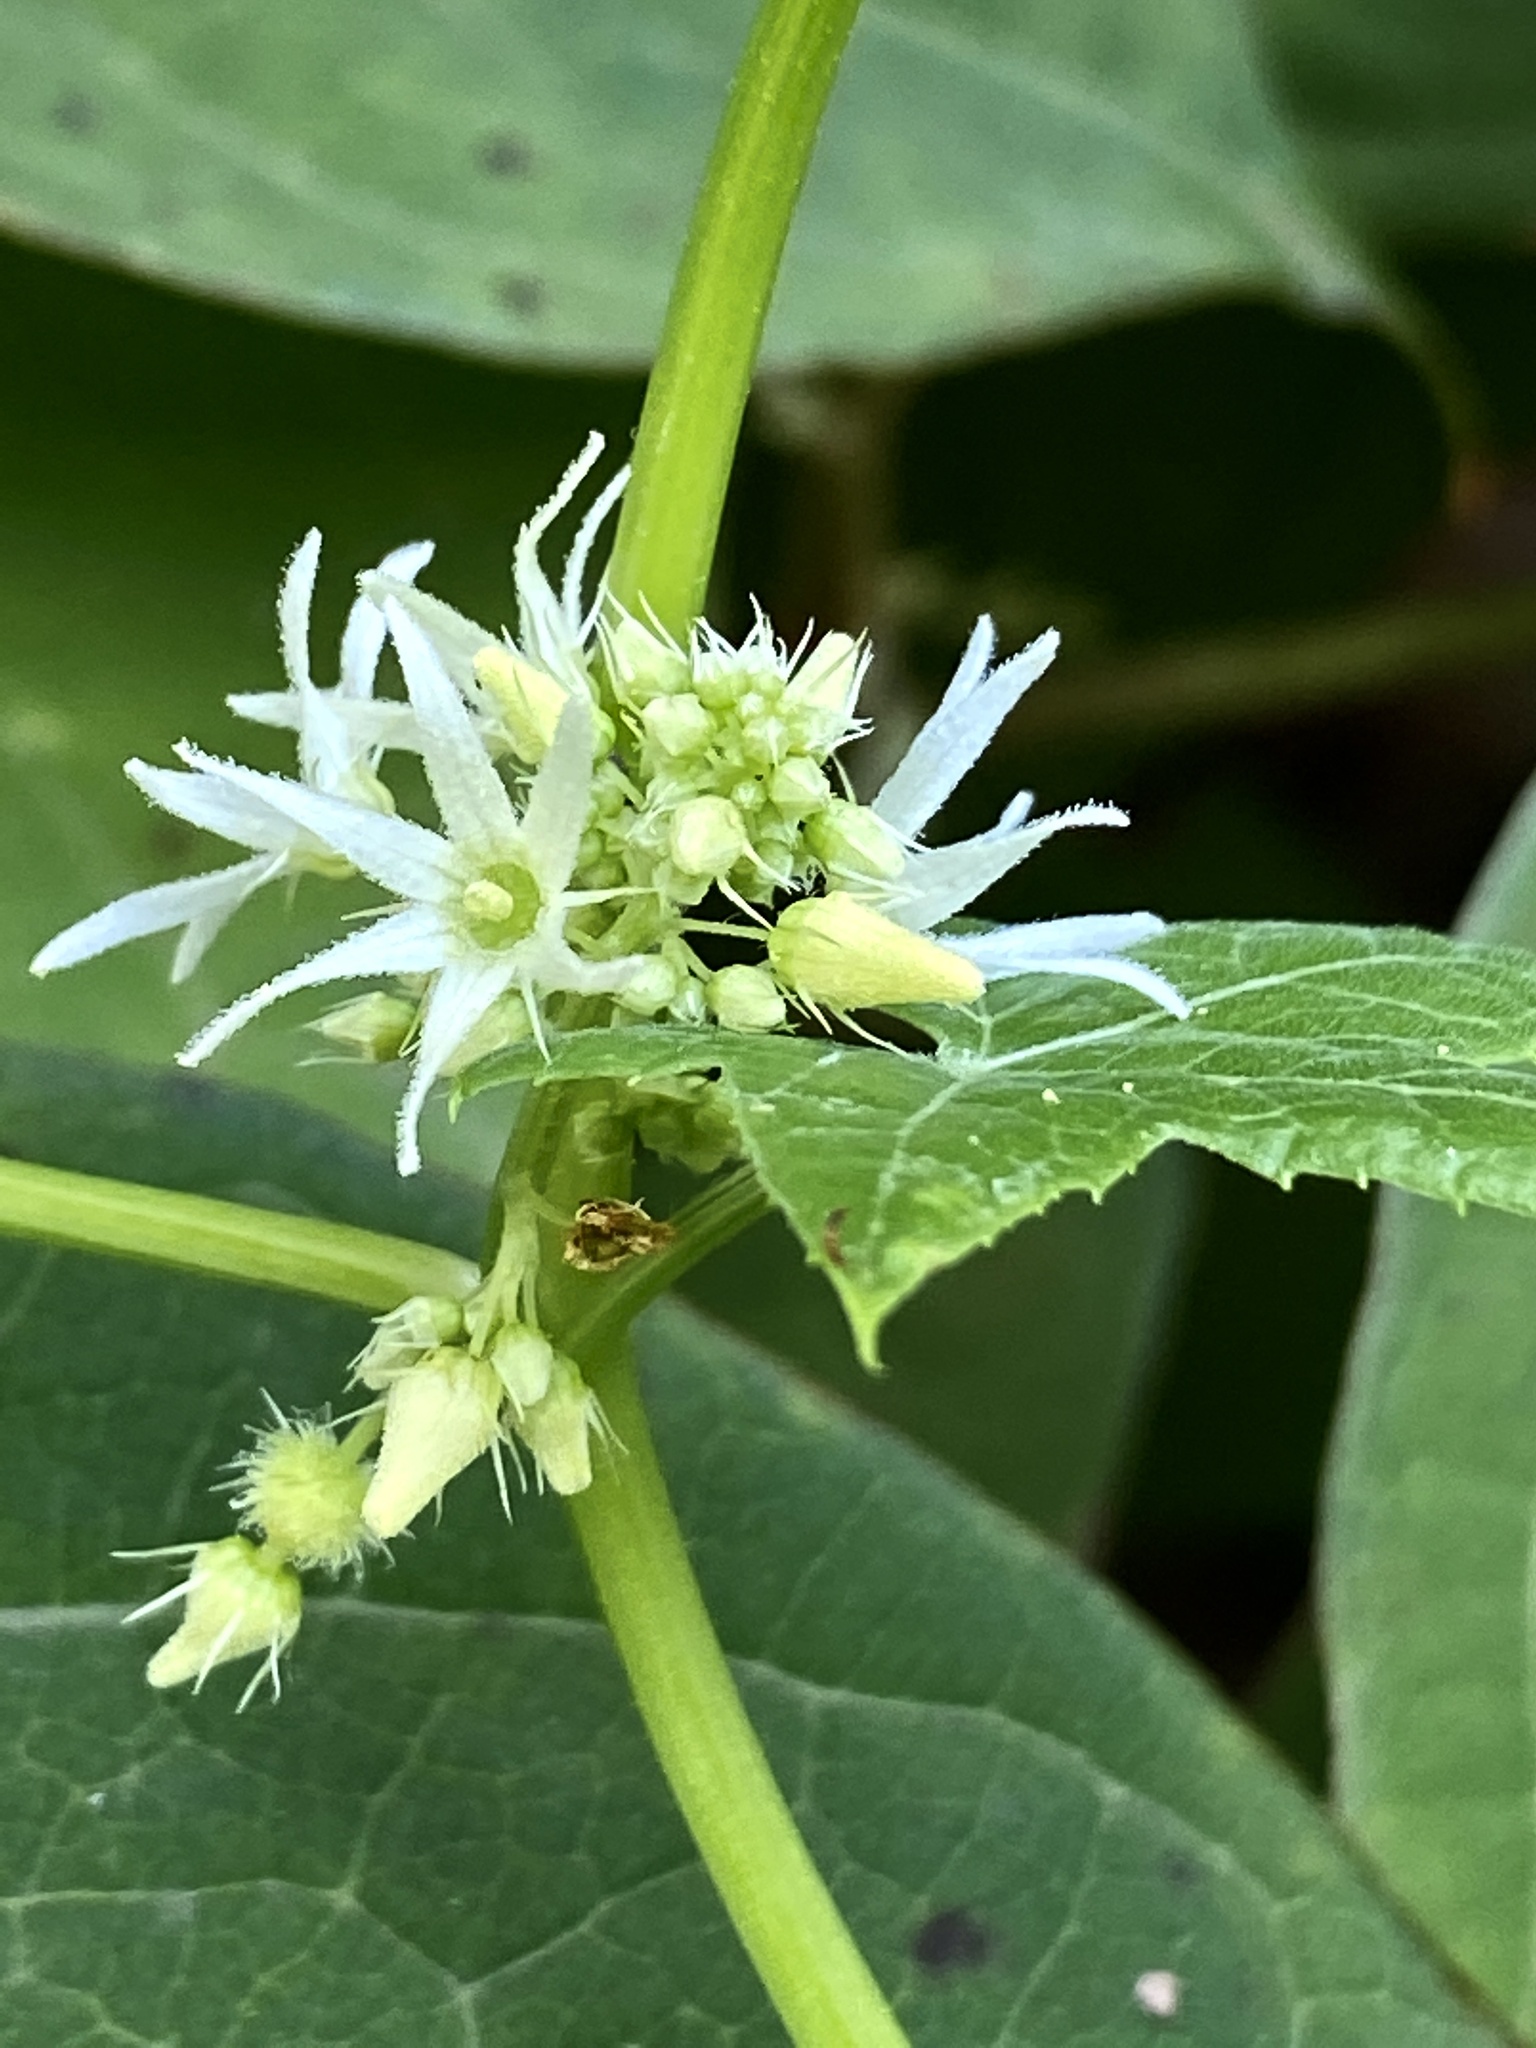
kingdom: Plantae
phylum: Tracheophyta
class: Magnoliopsida
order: Cucurbitales
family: Cucurbitaceae
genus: Echinocystis
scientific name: Echinocystis lobata
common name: Wild cucumber
